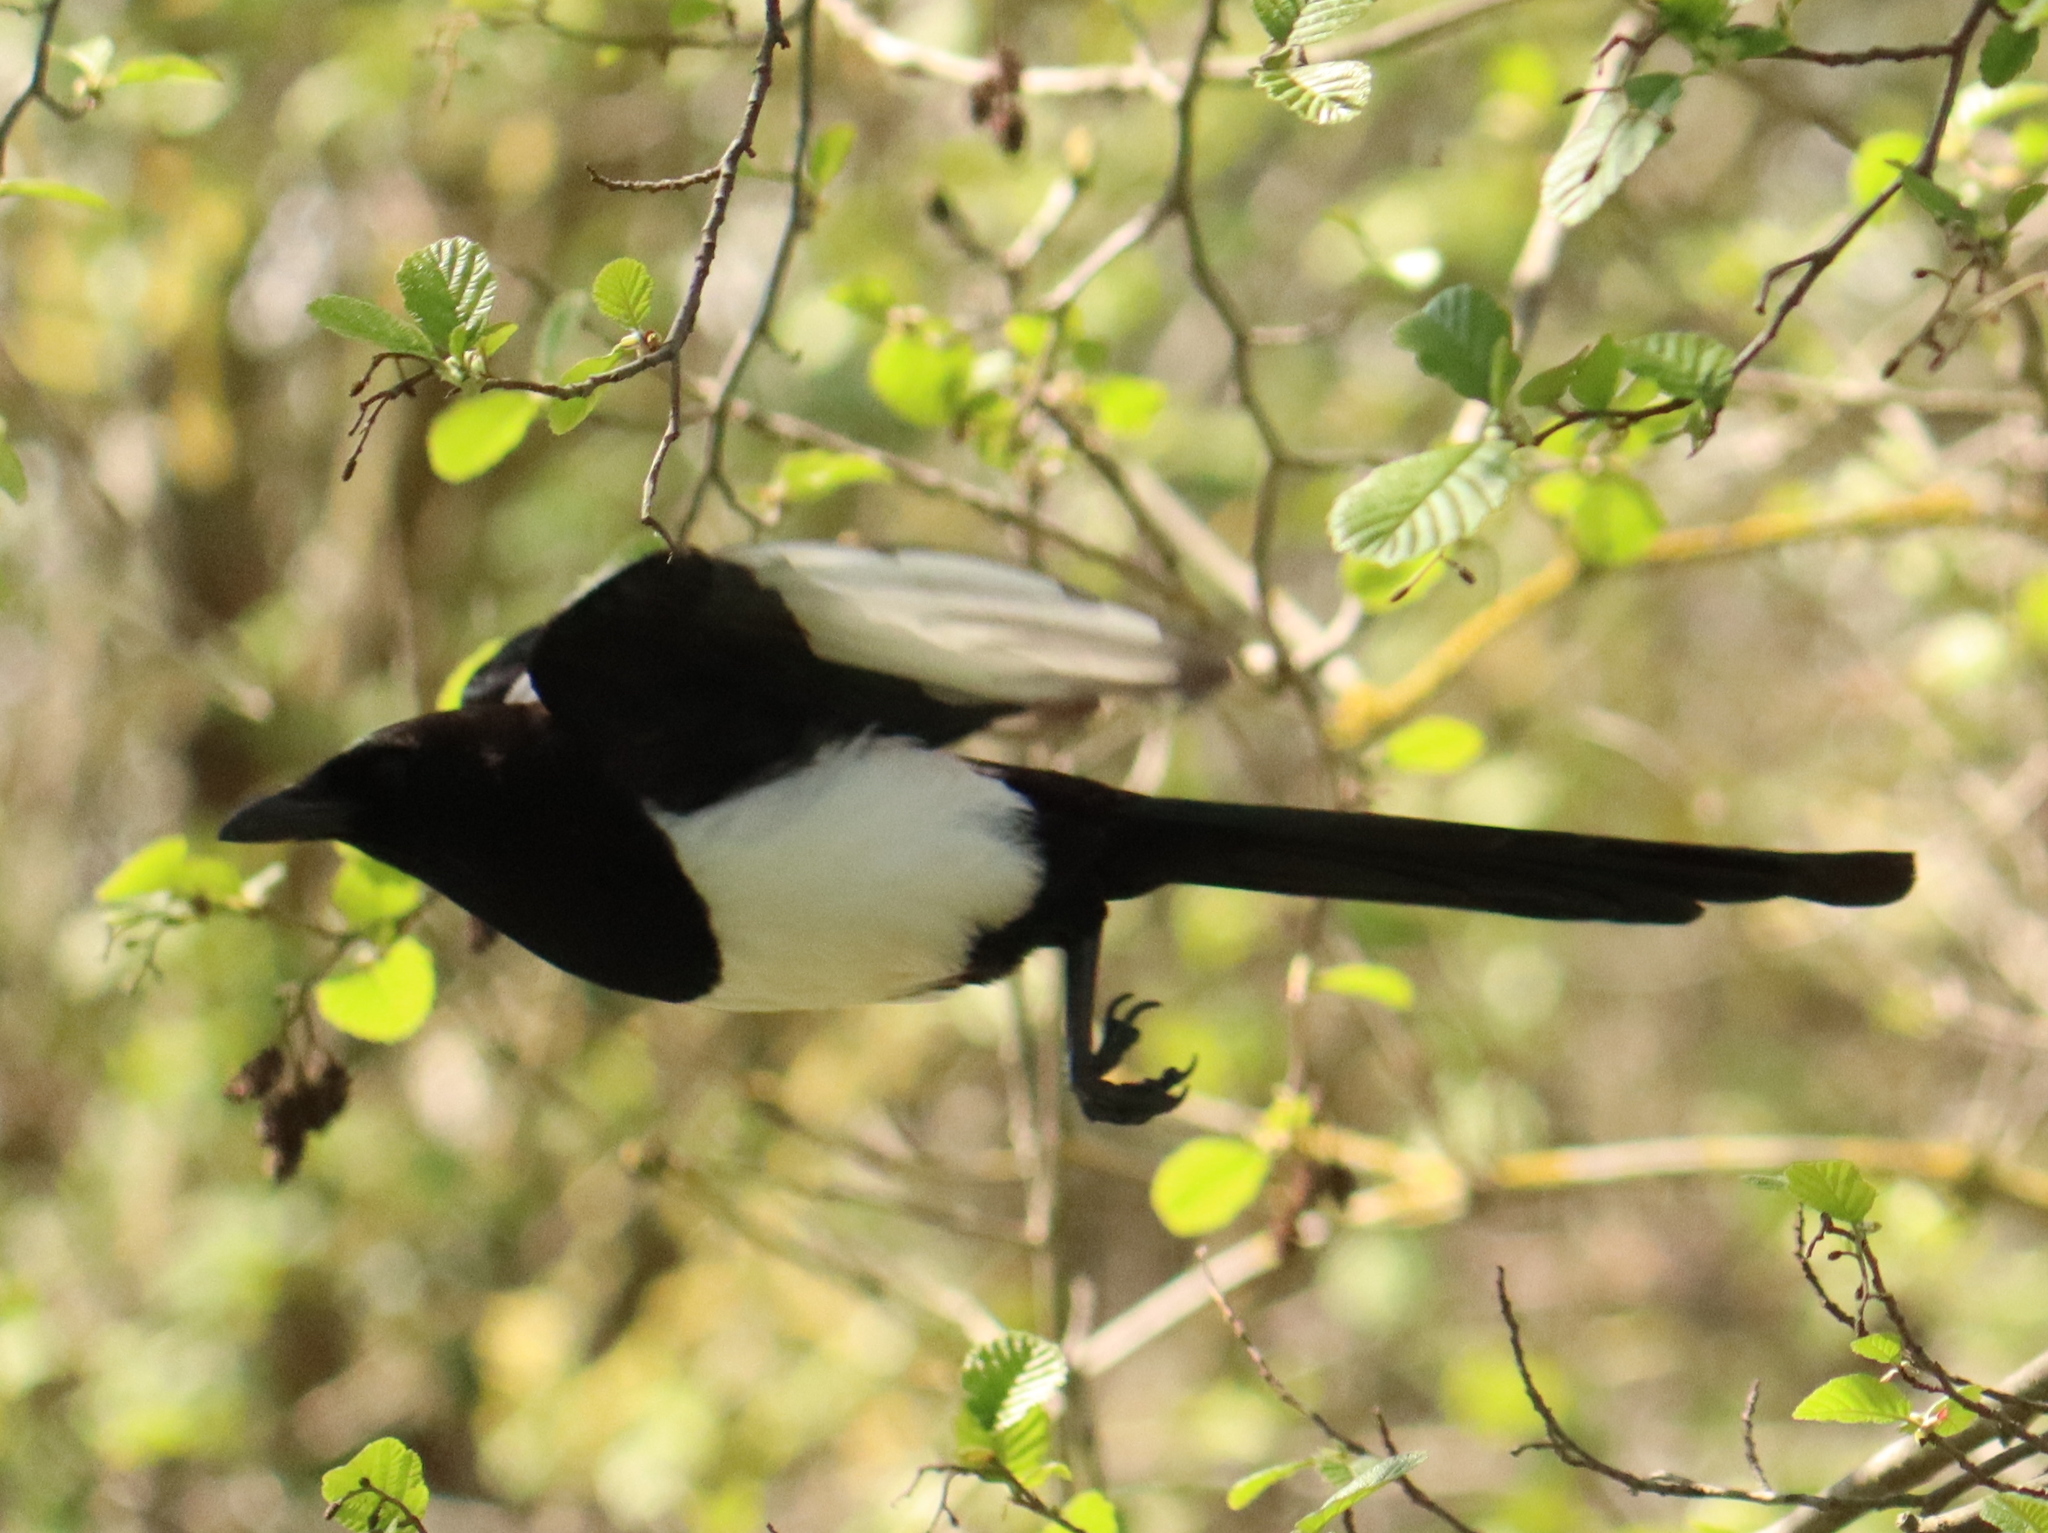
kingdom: Animalia
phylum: Chordata
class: Aves
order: Passeriformes
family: Corvidae
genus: Pica
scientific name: Pica pica
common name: Eurasian magpie
